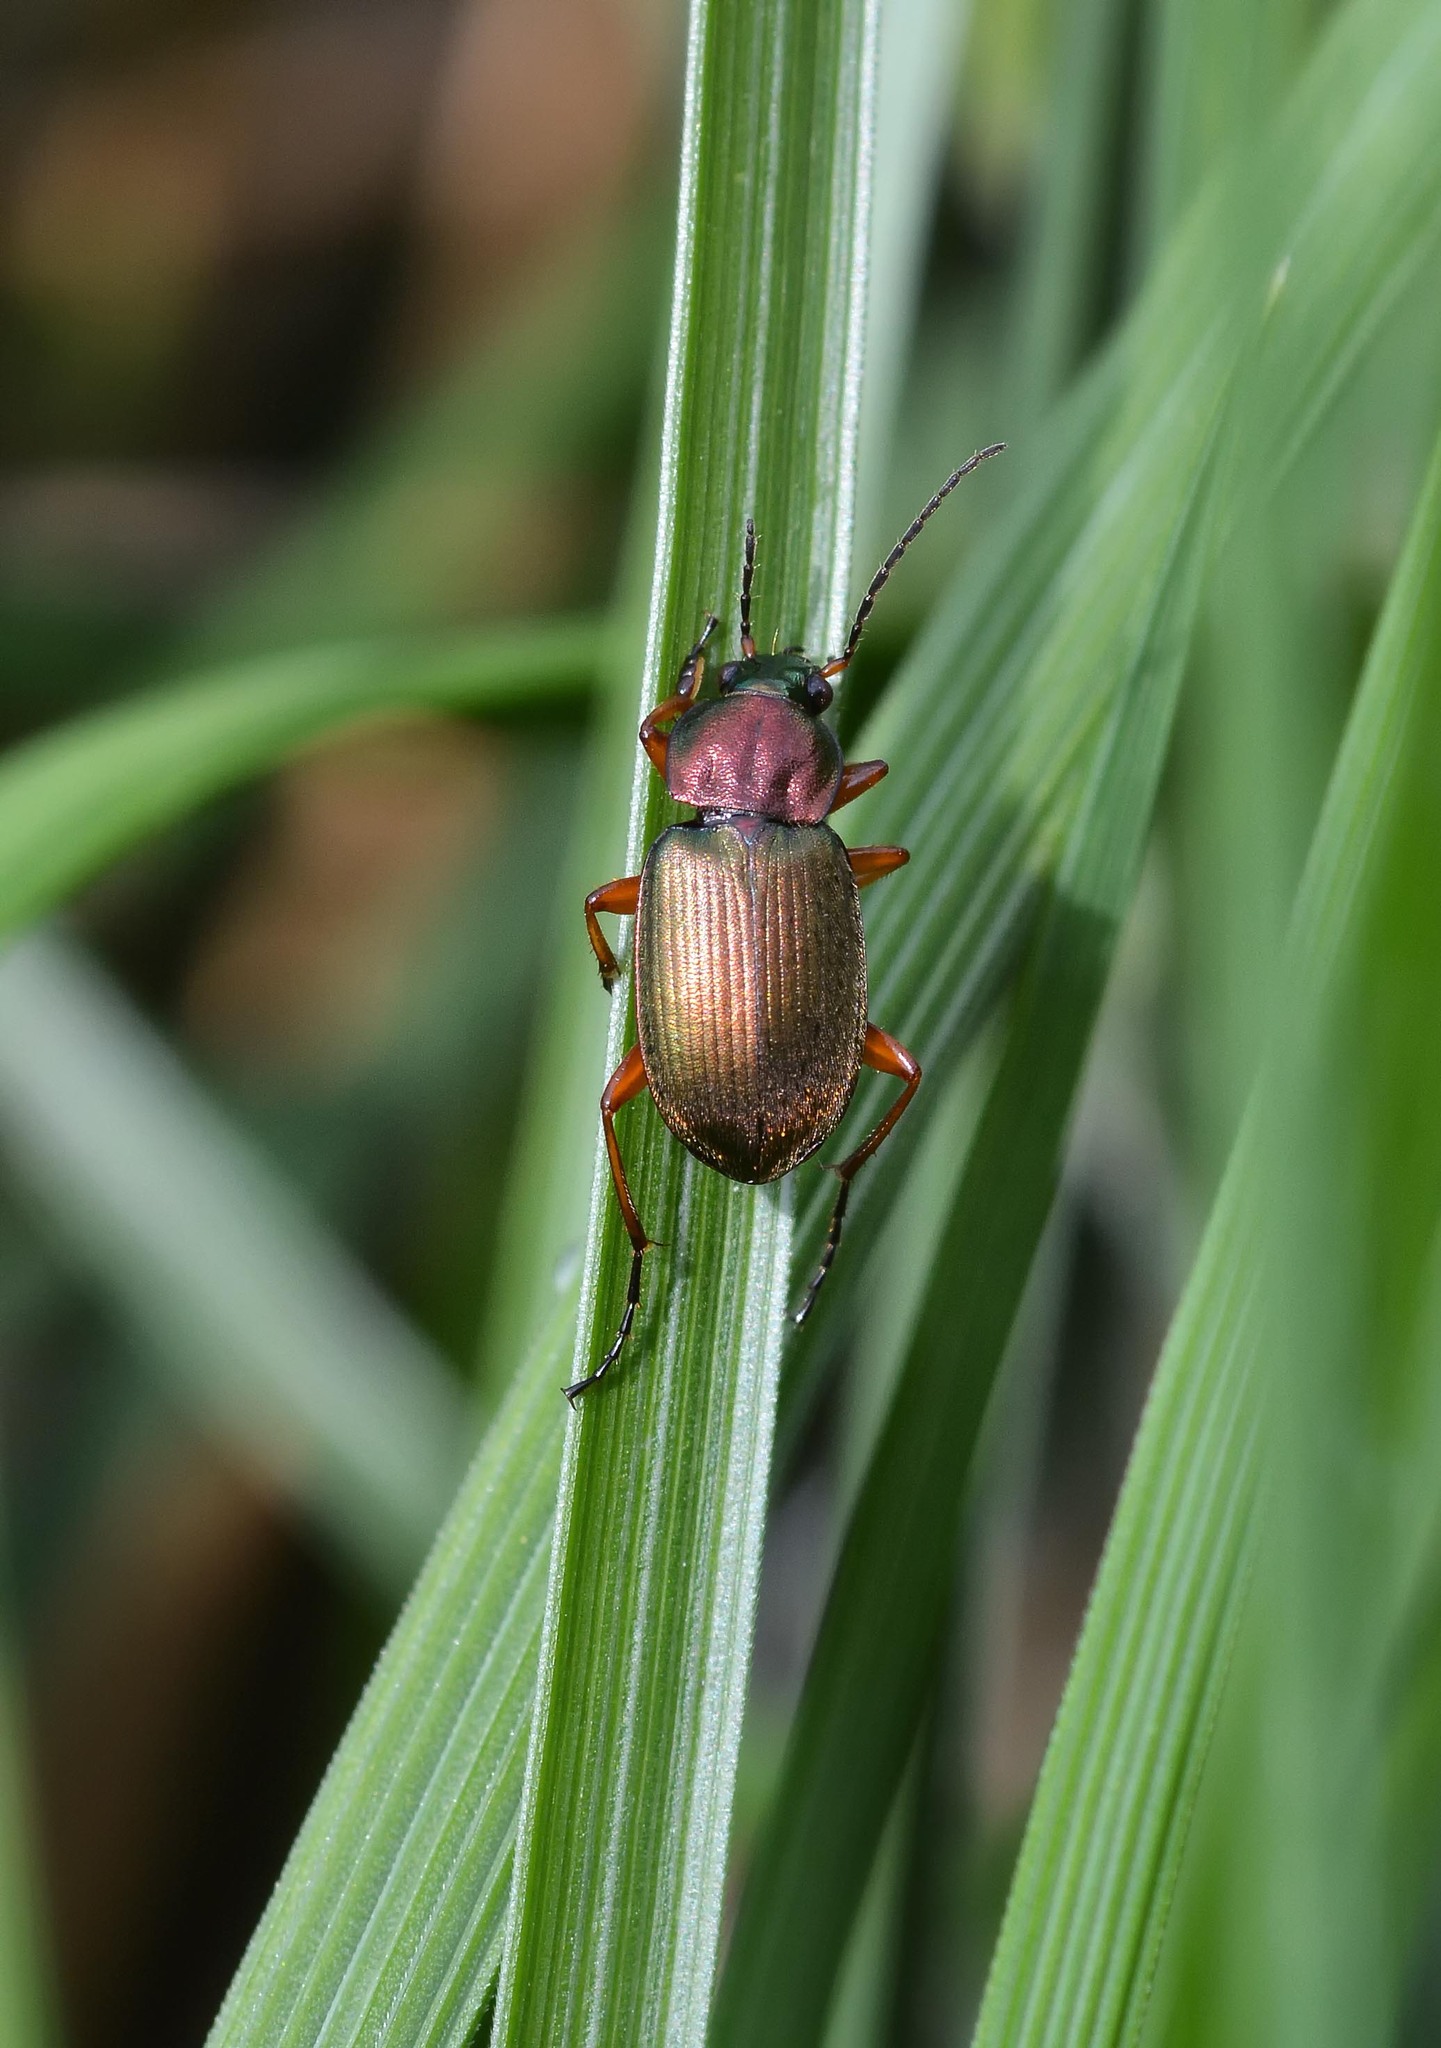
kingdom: Animalia
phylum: Arthropoda
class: Insecta
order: Coleoptera
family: Carabidae
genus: Chlaenius
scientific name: Chlaenius nigricornis
